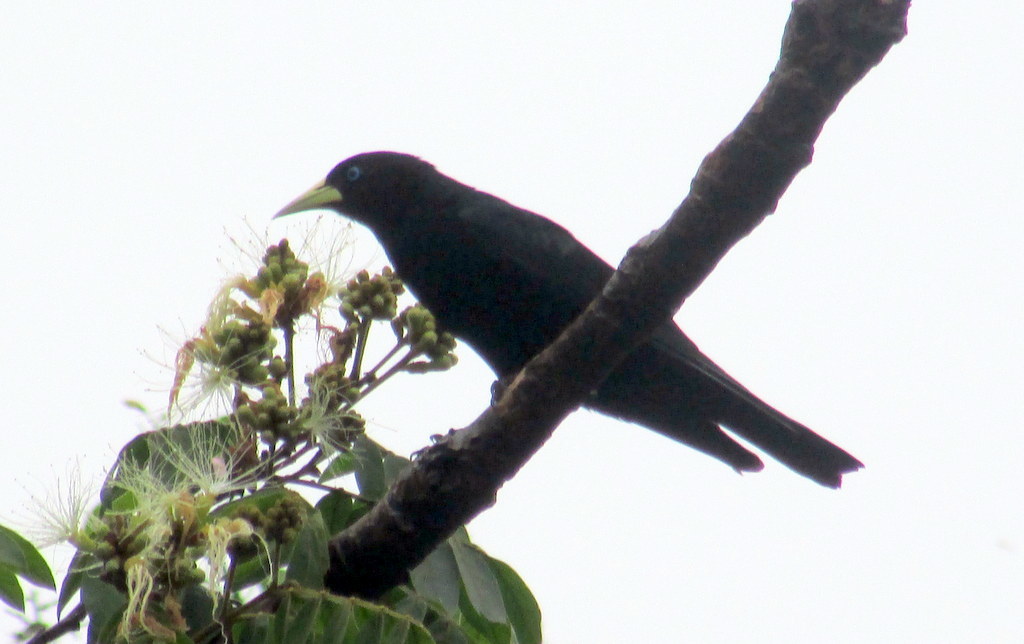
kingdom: Animalia
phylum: Chordata
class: Aves
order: Passeriformes
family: Icteridae
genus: Cacicus
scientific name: Cacicus haemorrhous
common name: Red-rumped cacique
